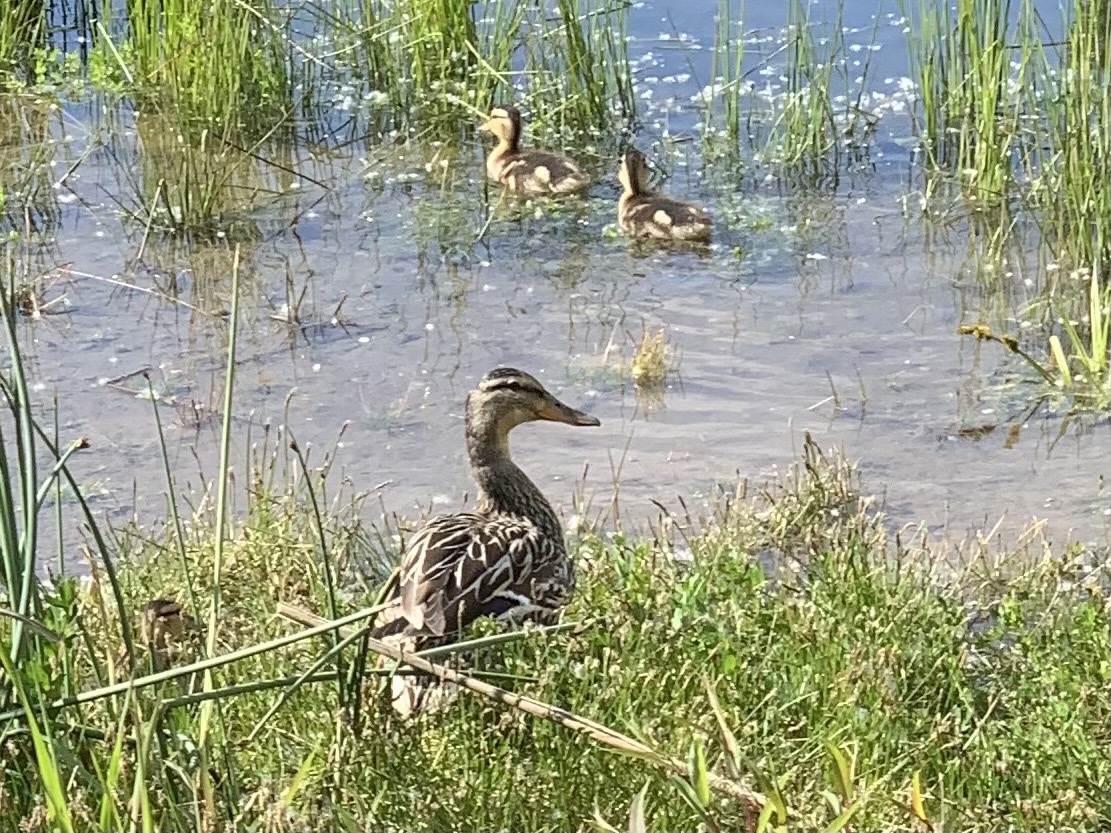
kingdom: Animalia
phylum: Chordata
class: Aves
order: Anseriformes
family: Anatidae
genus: Anas
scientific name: Anas platyrhynchos
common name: Mallard
